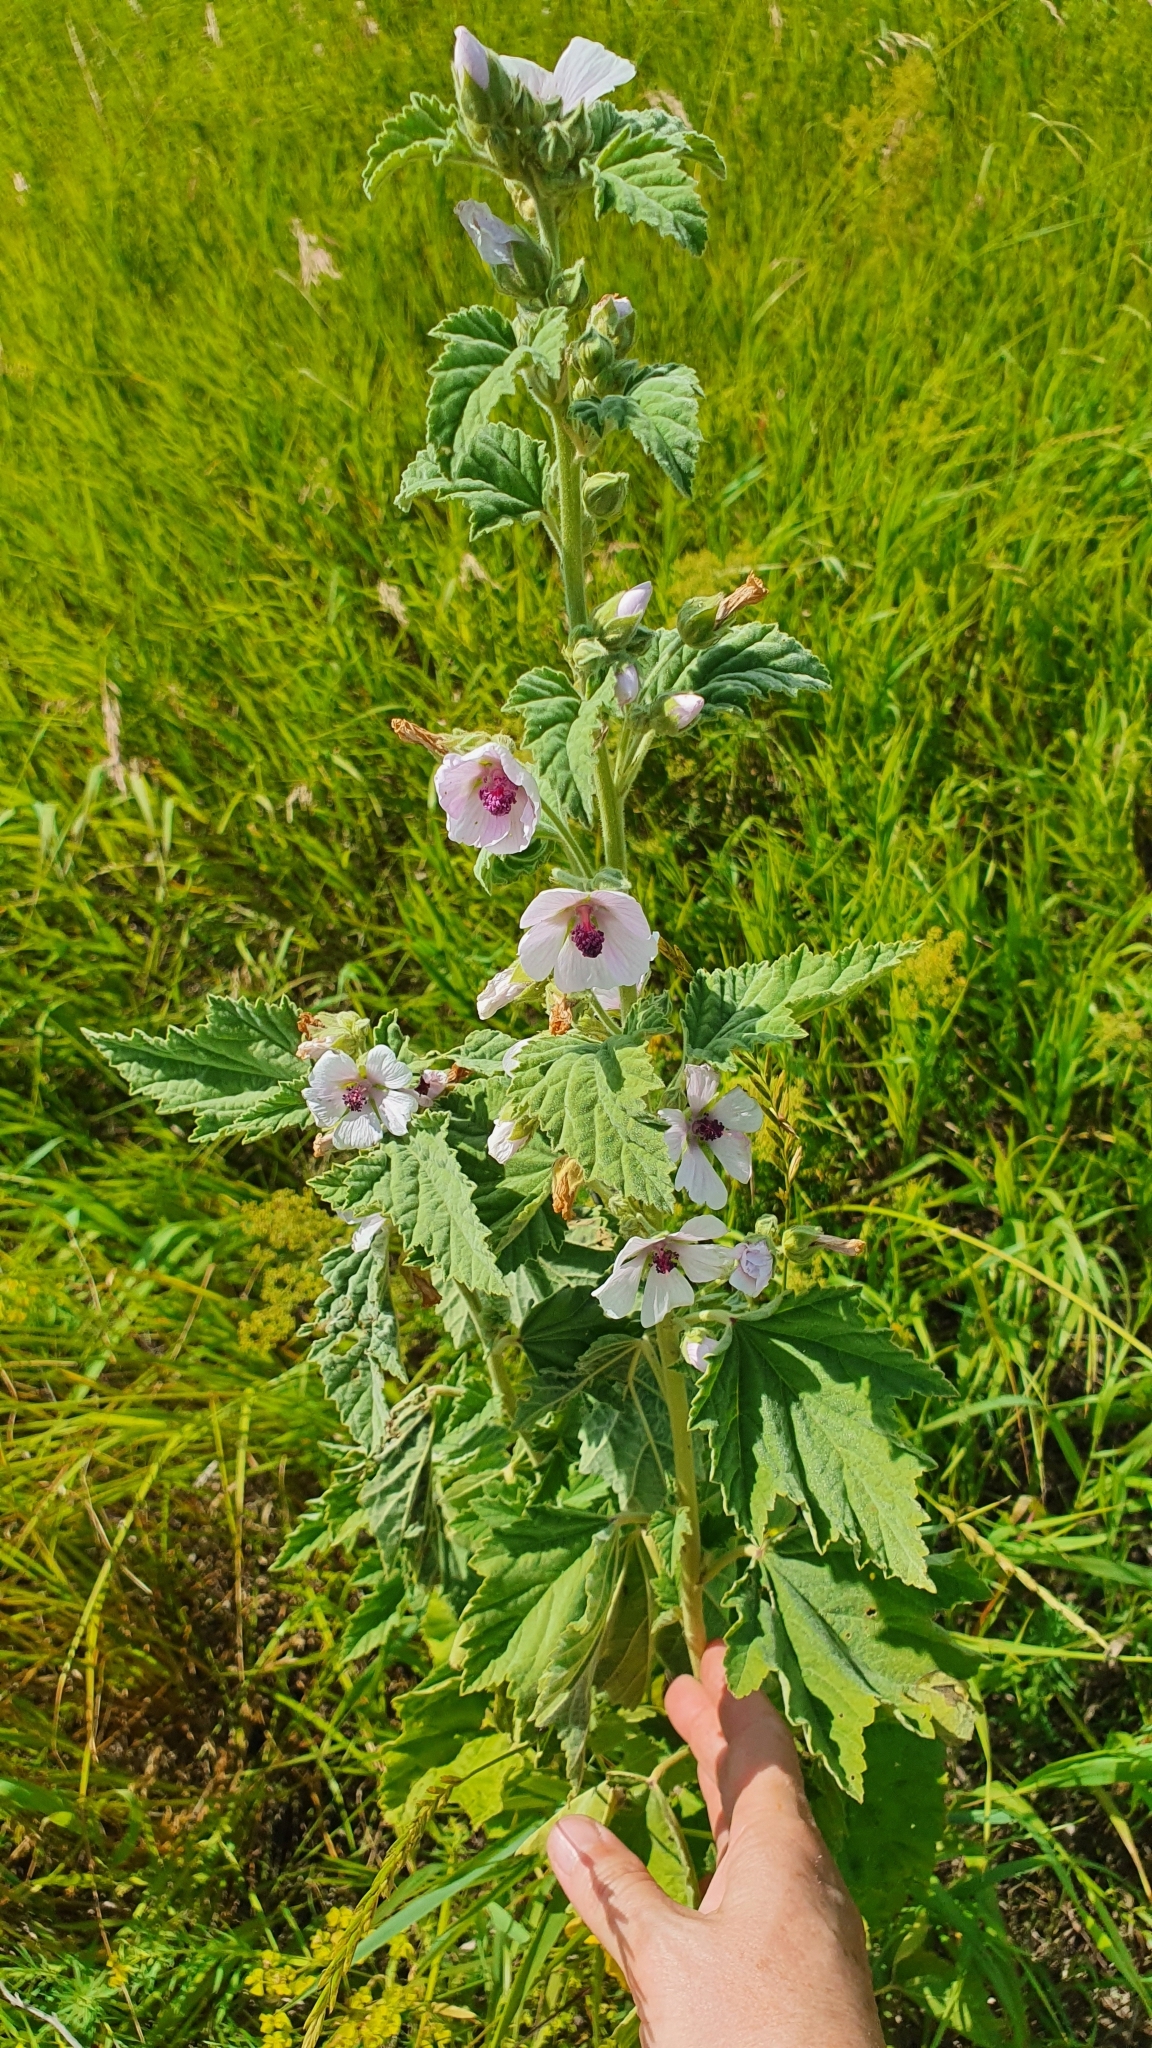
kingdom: Plantae
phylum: Tracheophyta
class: Magnoliopsida
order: Malvales
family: Malvaceae
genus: Althaea
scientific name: Althaea officinalis
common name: Marsh-mallow
